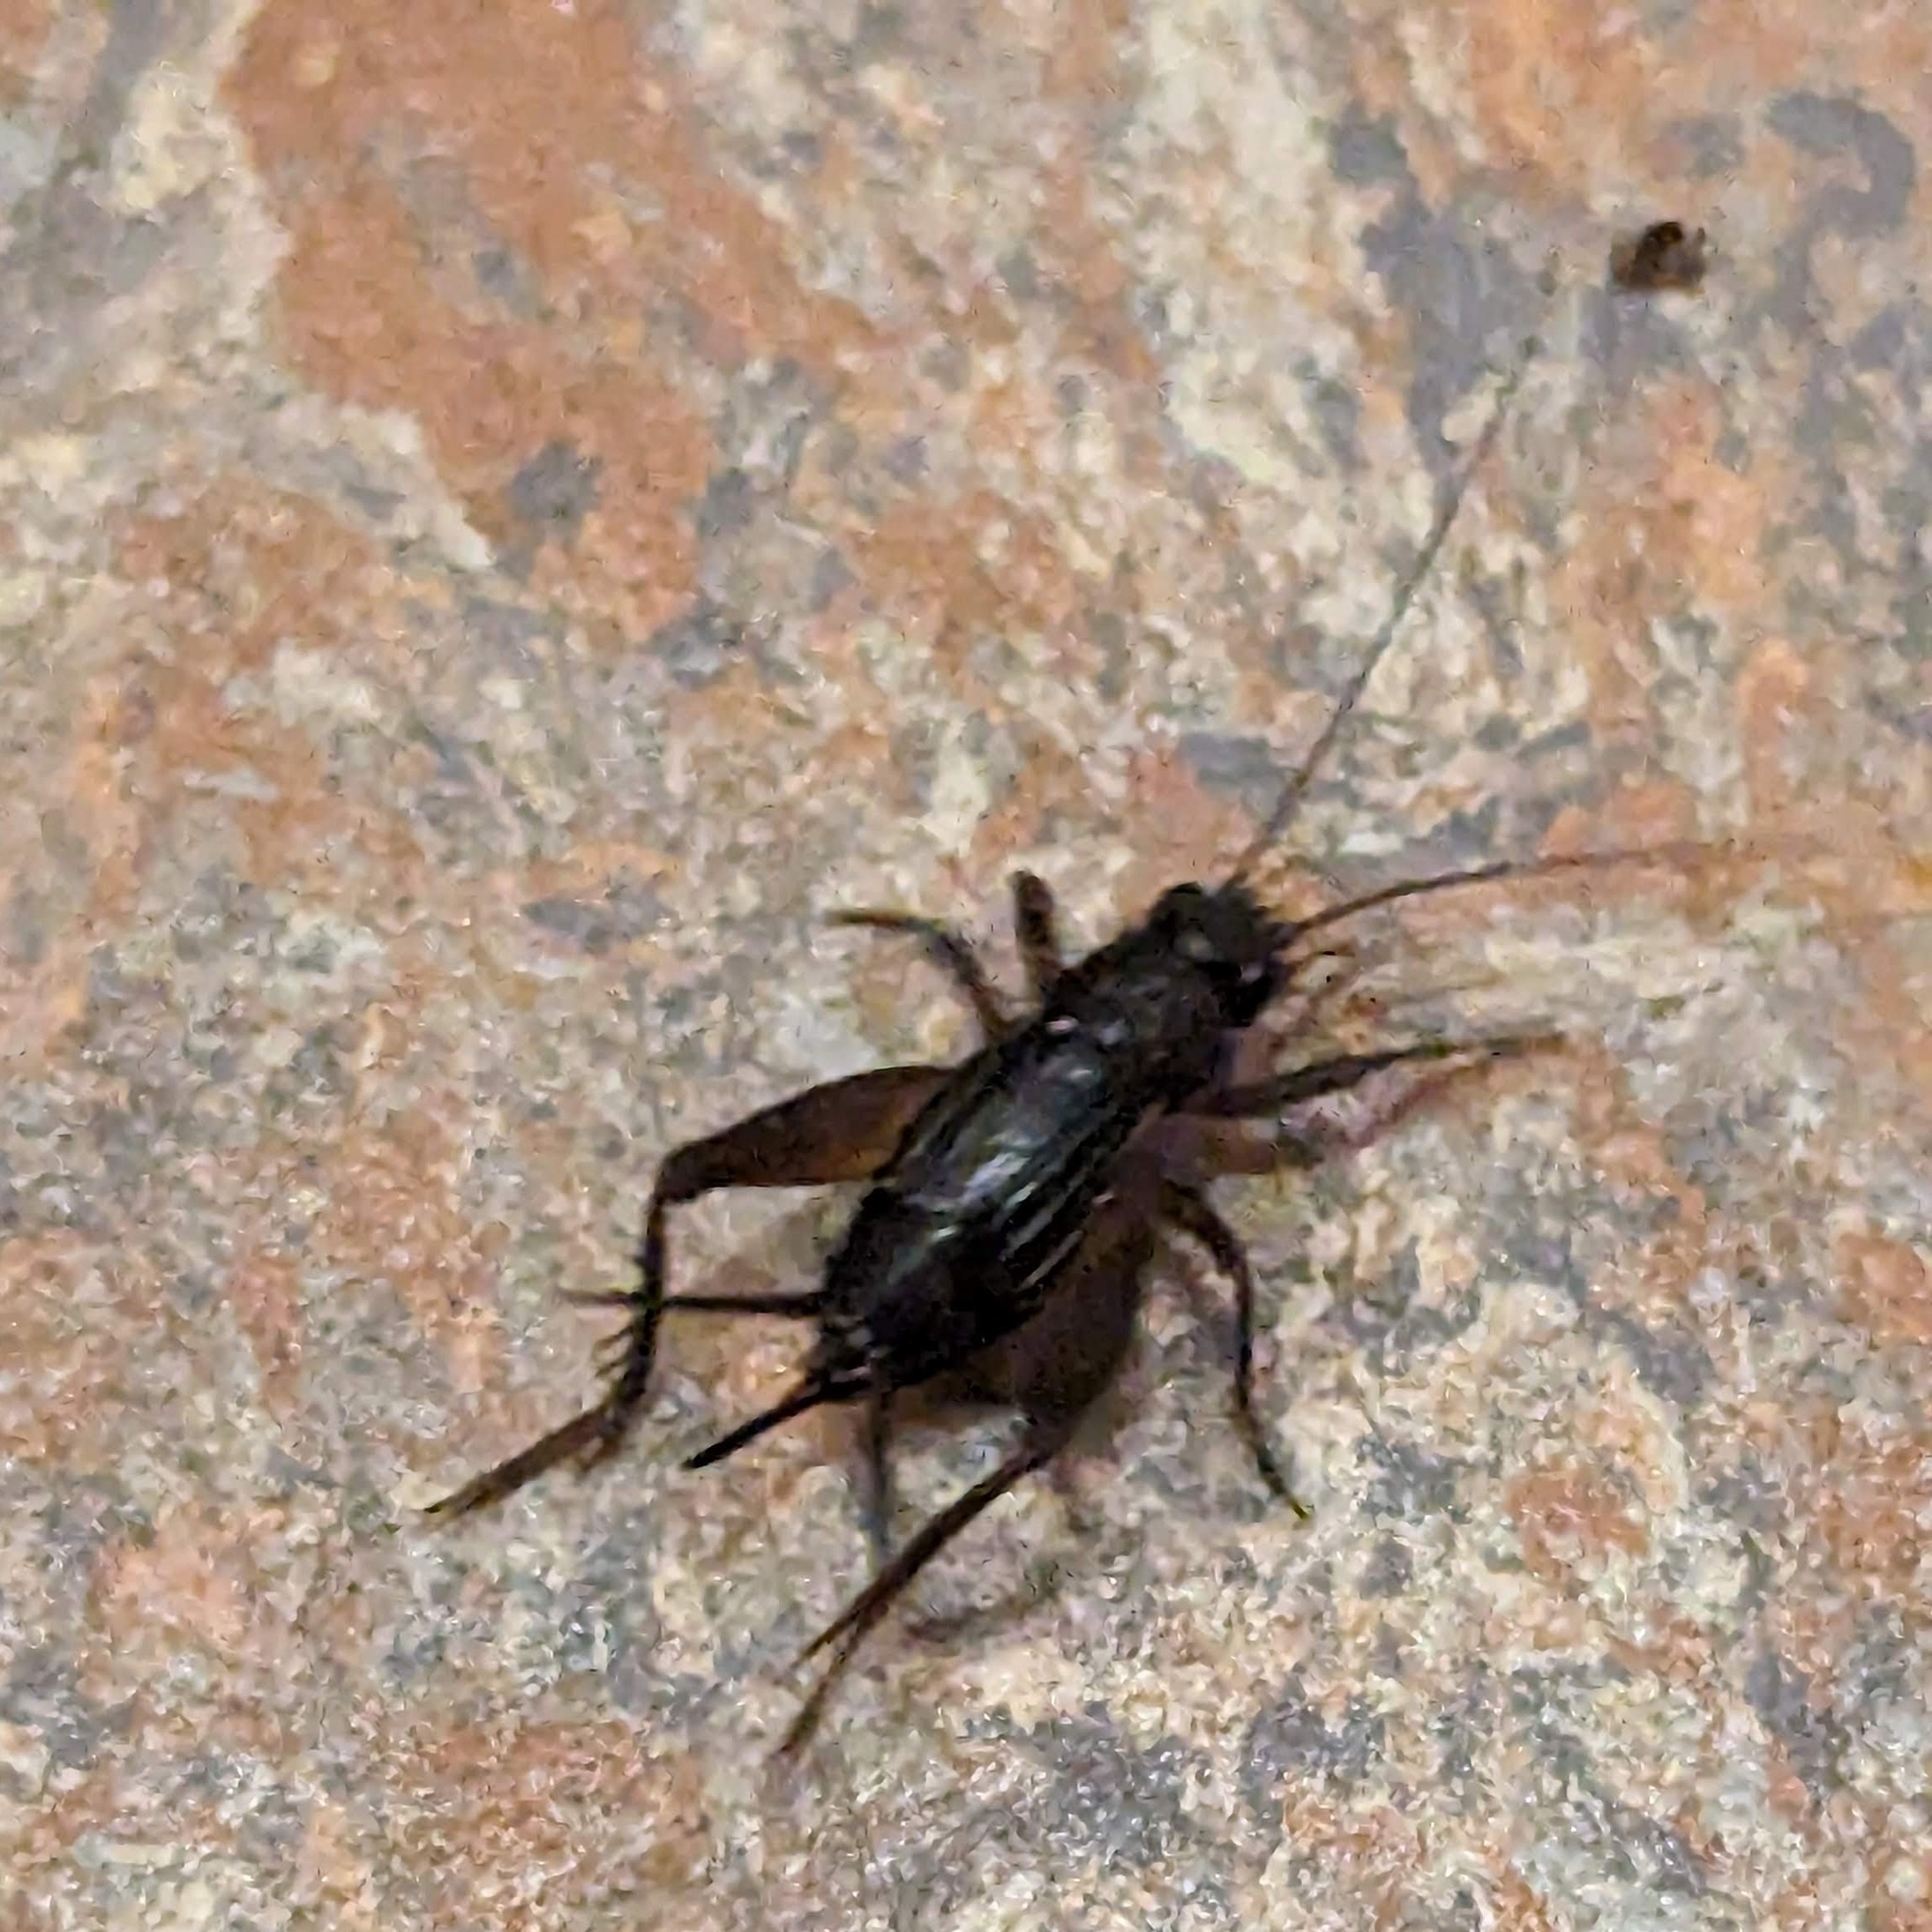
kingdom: Animalia
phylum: Arthropoda
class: Insecta
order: Orthoptera
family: Trigonidiidae
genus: Eunemobius
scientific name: Eunemobius carolinus
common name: Carolina ground cricket
